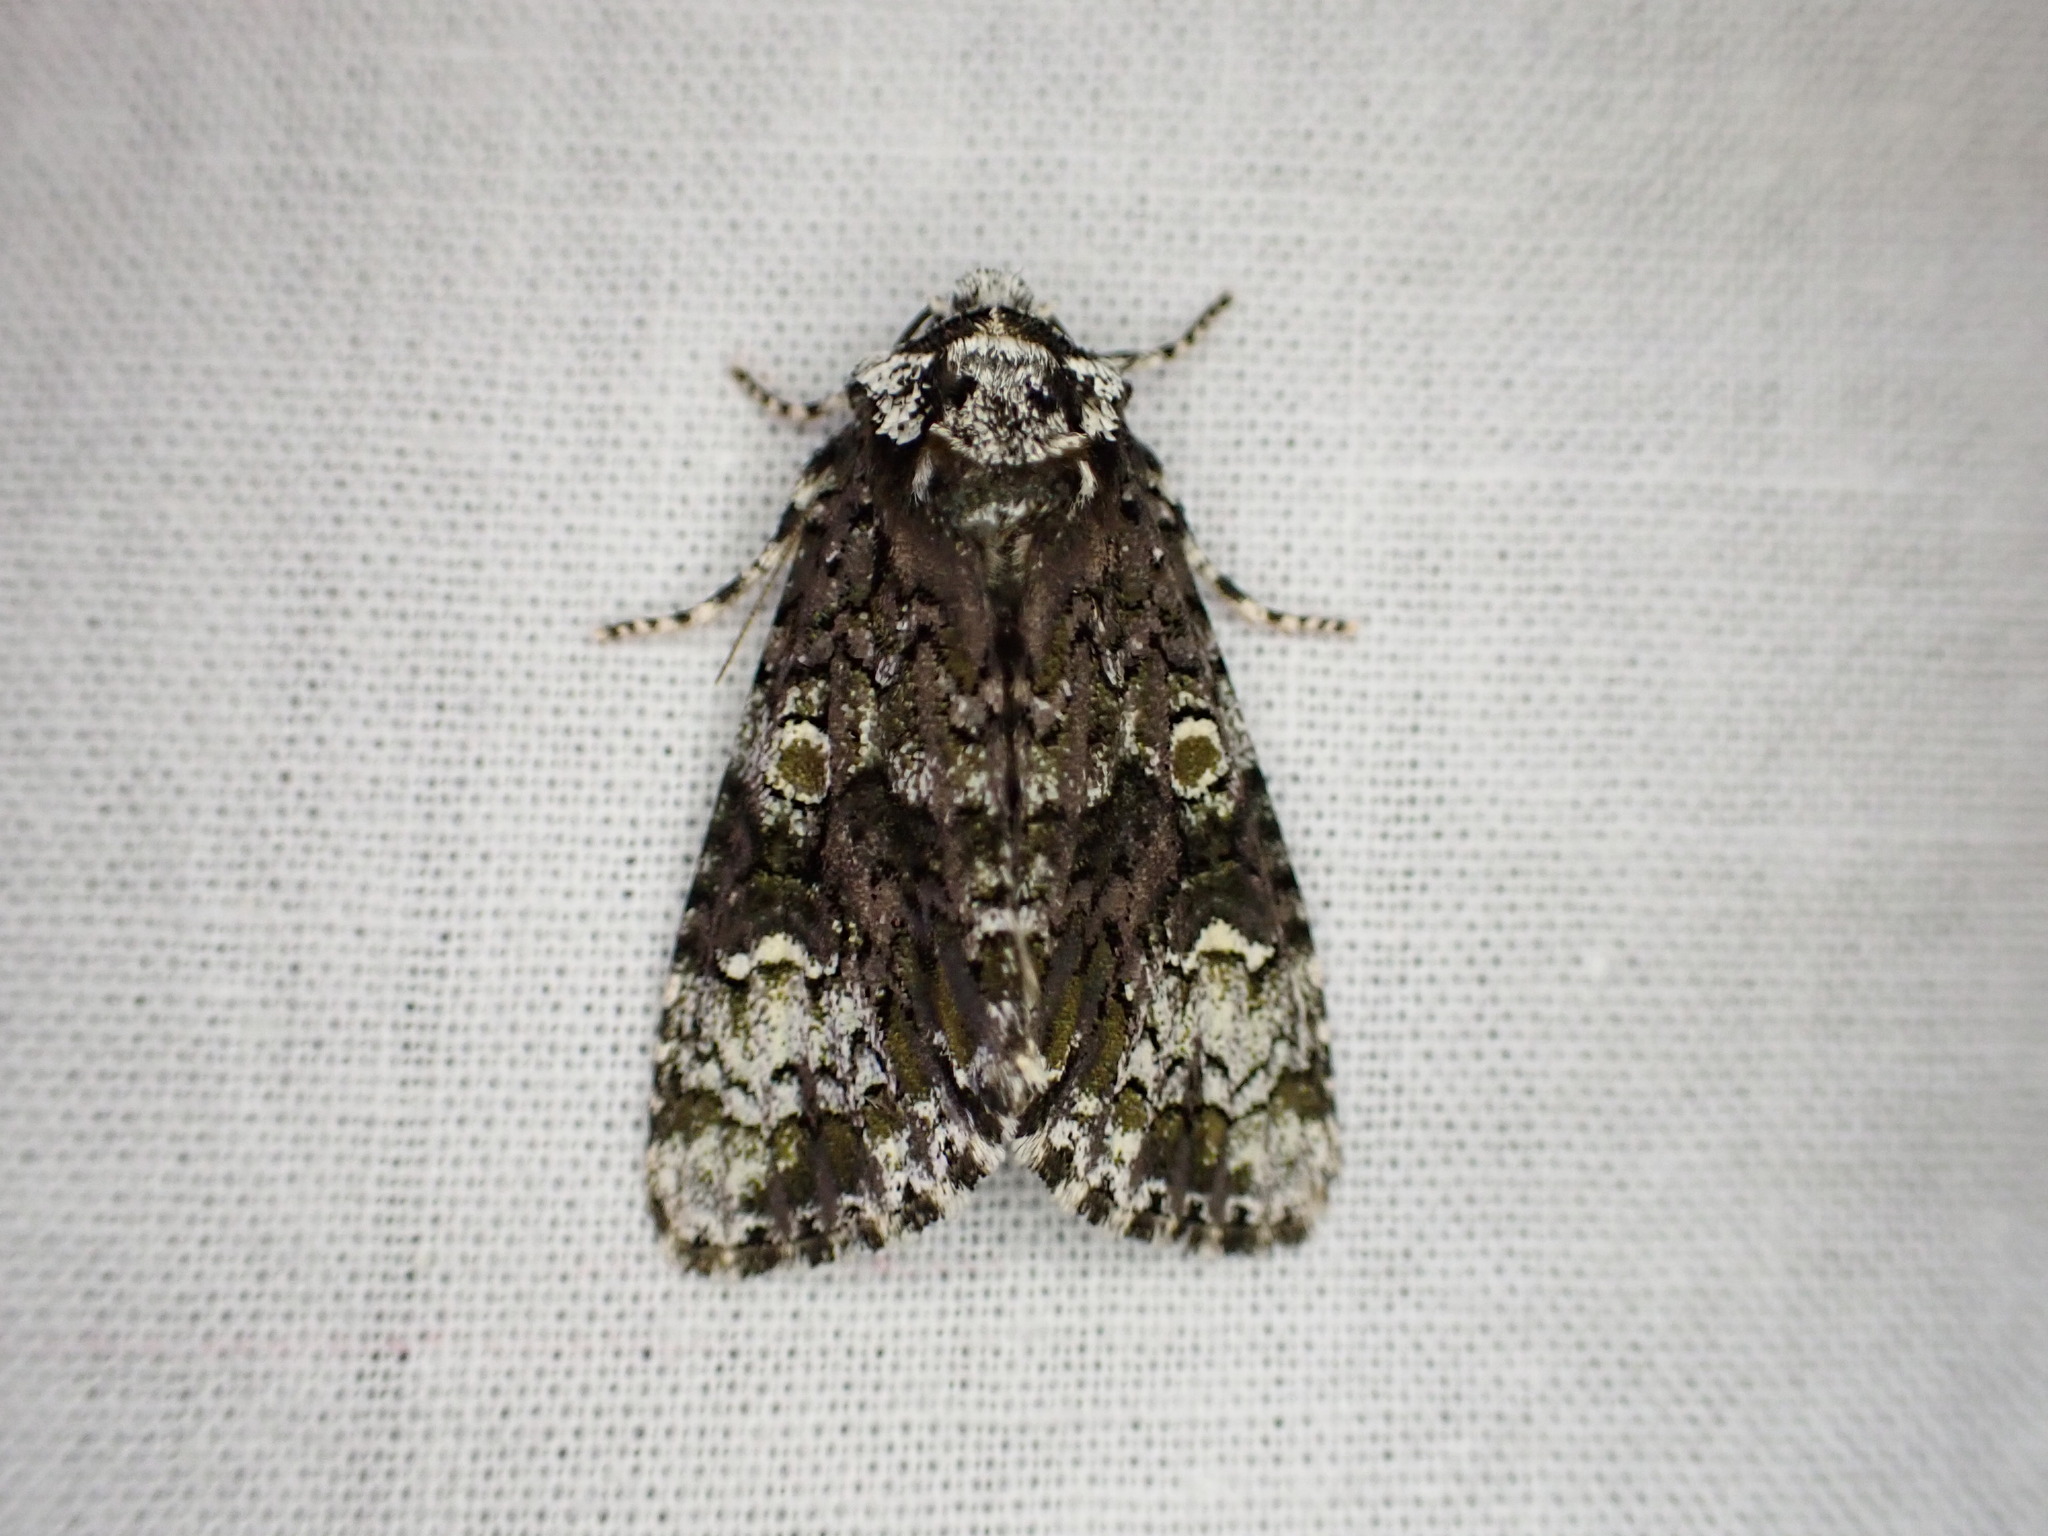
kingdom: Animalia
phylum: Arthropoda
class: Insecta
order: Lepidoptera
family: Noctuidae
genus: Craniophora
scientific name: Craniophora ligustri
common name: Coronet
